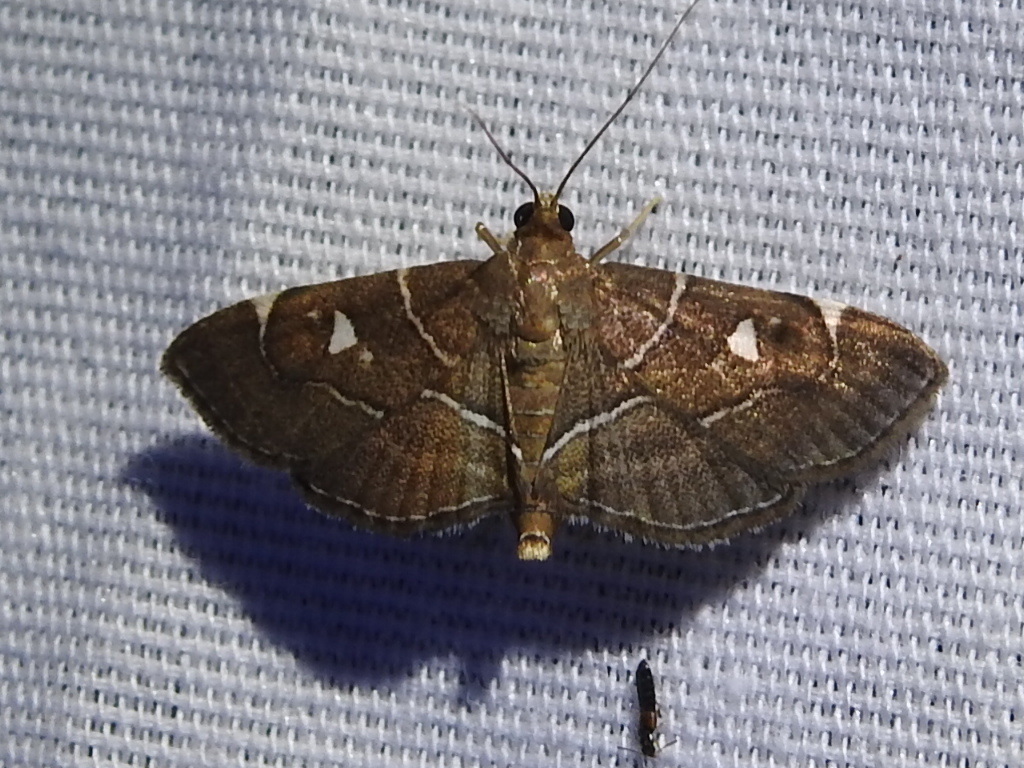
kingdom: Animalia
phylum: Arthropoda
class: Insecta
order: Lepidoptera
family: Crambidae
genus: Lamprosema
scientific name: Lamprosema victoriae
